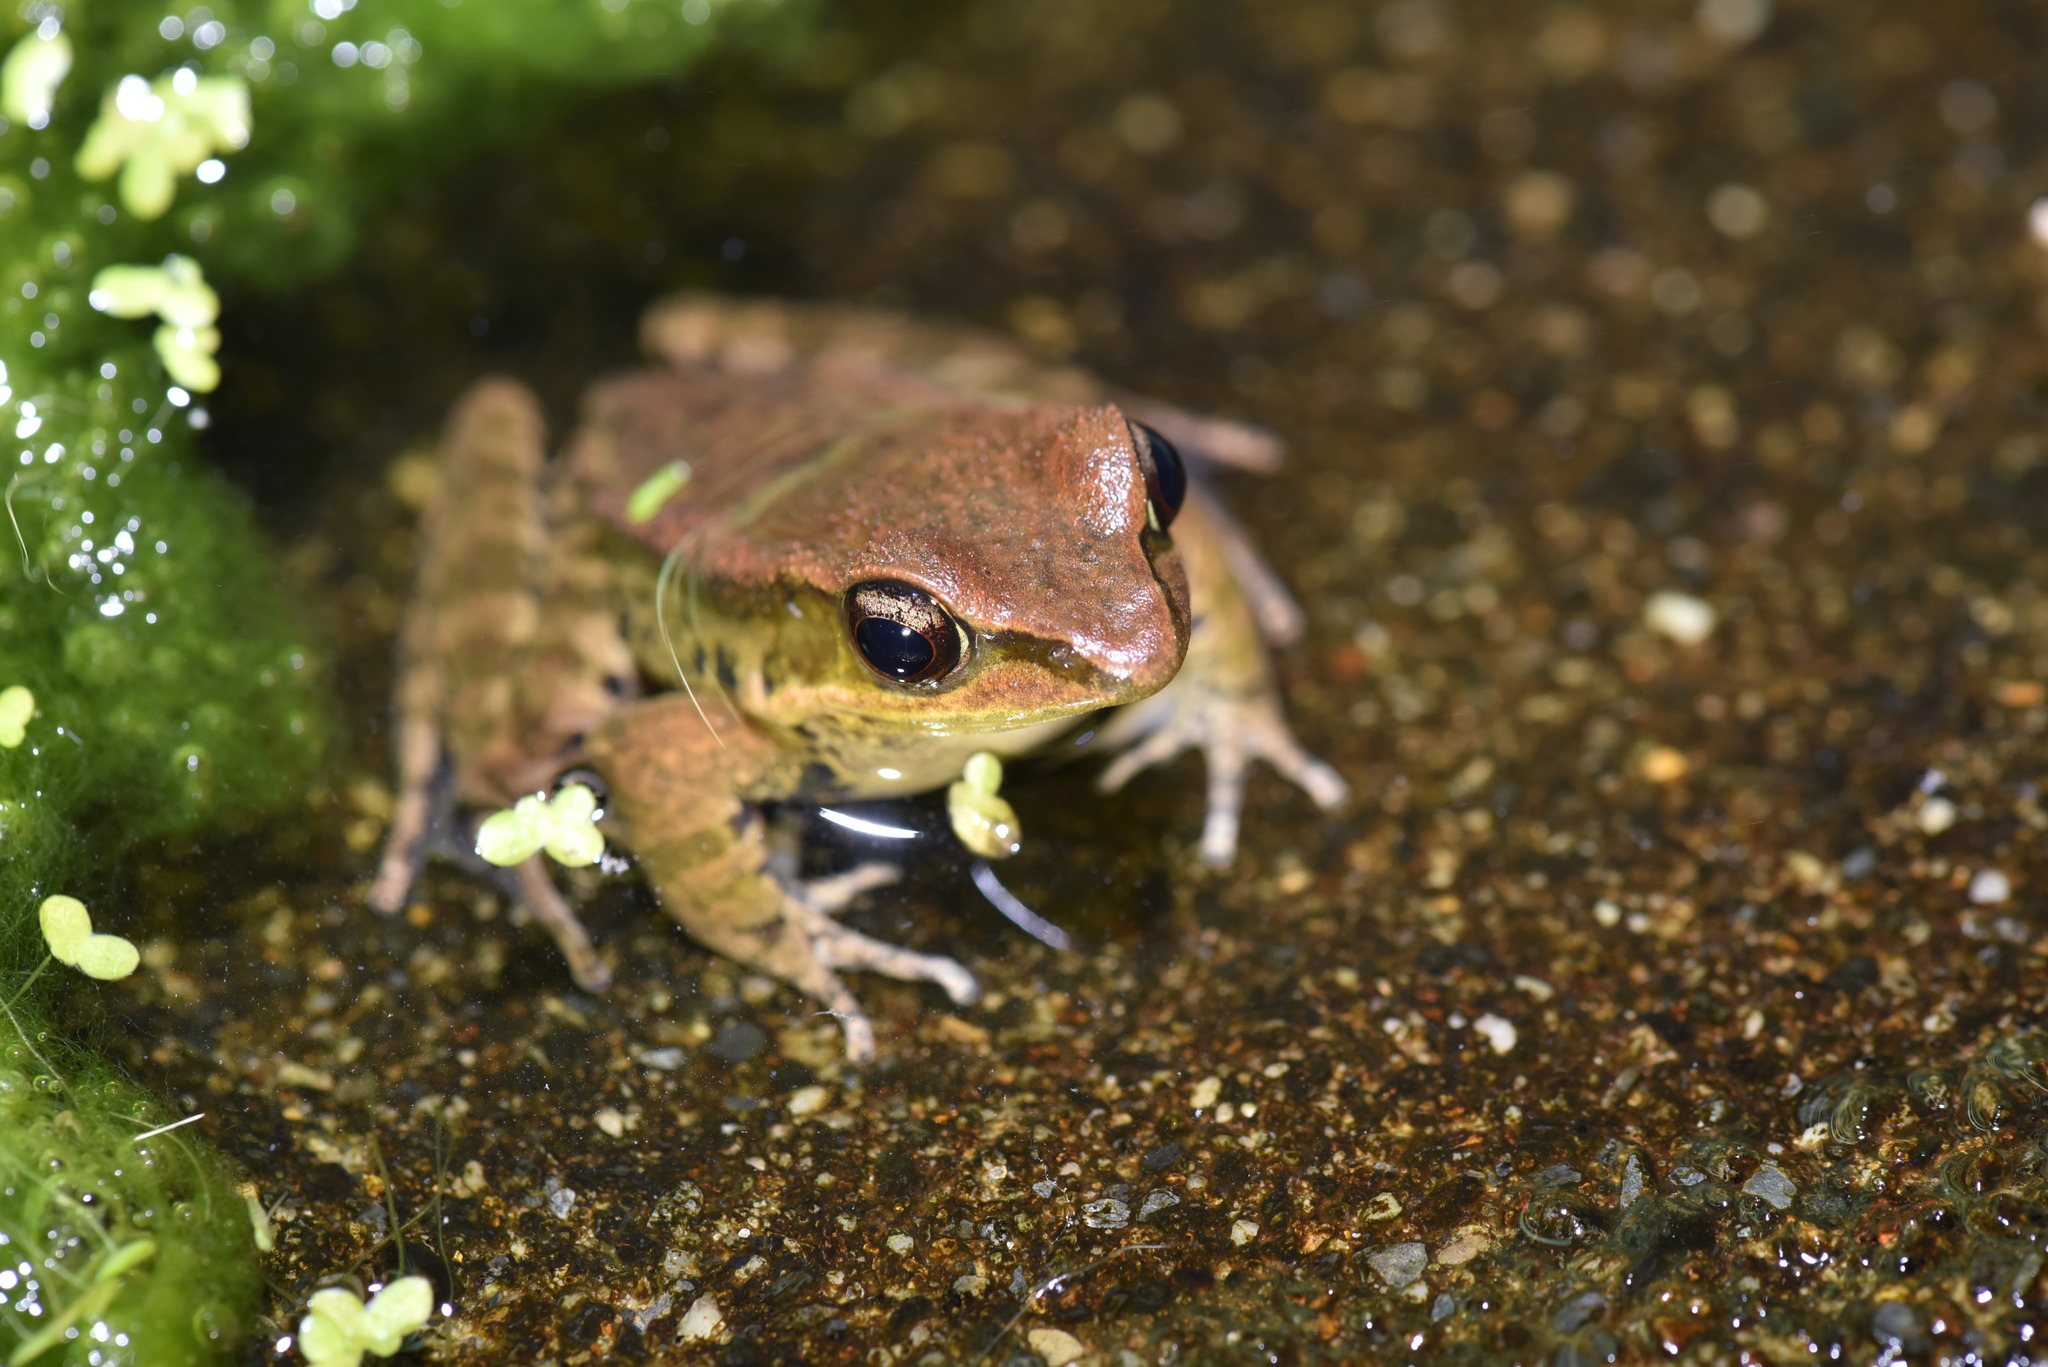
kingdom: Animalia
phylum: Chordata
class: Amphibia
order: Anura
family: Ranidae
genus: Hylarana
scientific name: Hylarana latouchii
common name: Broad-folded frog
